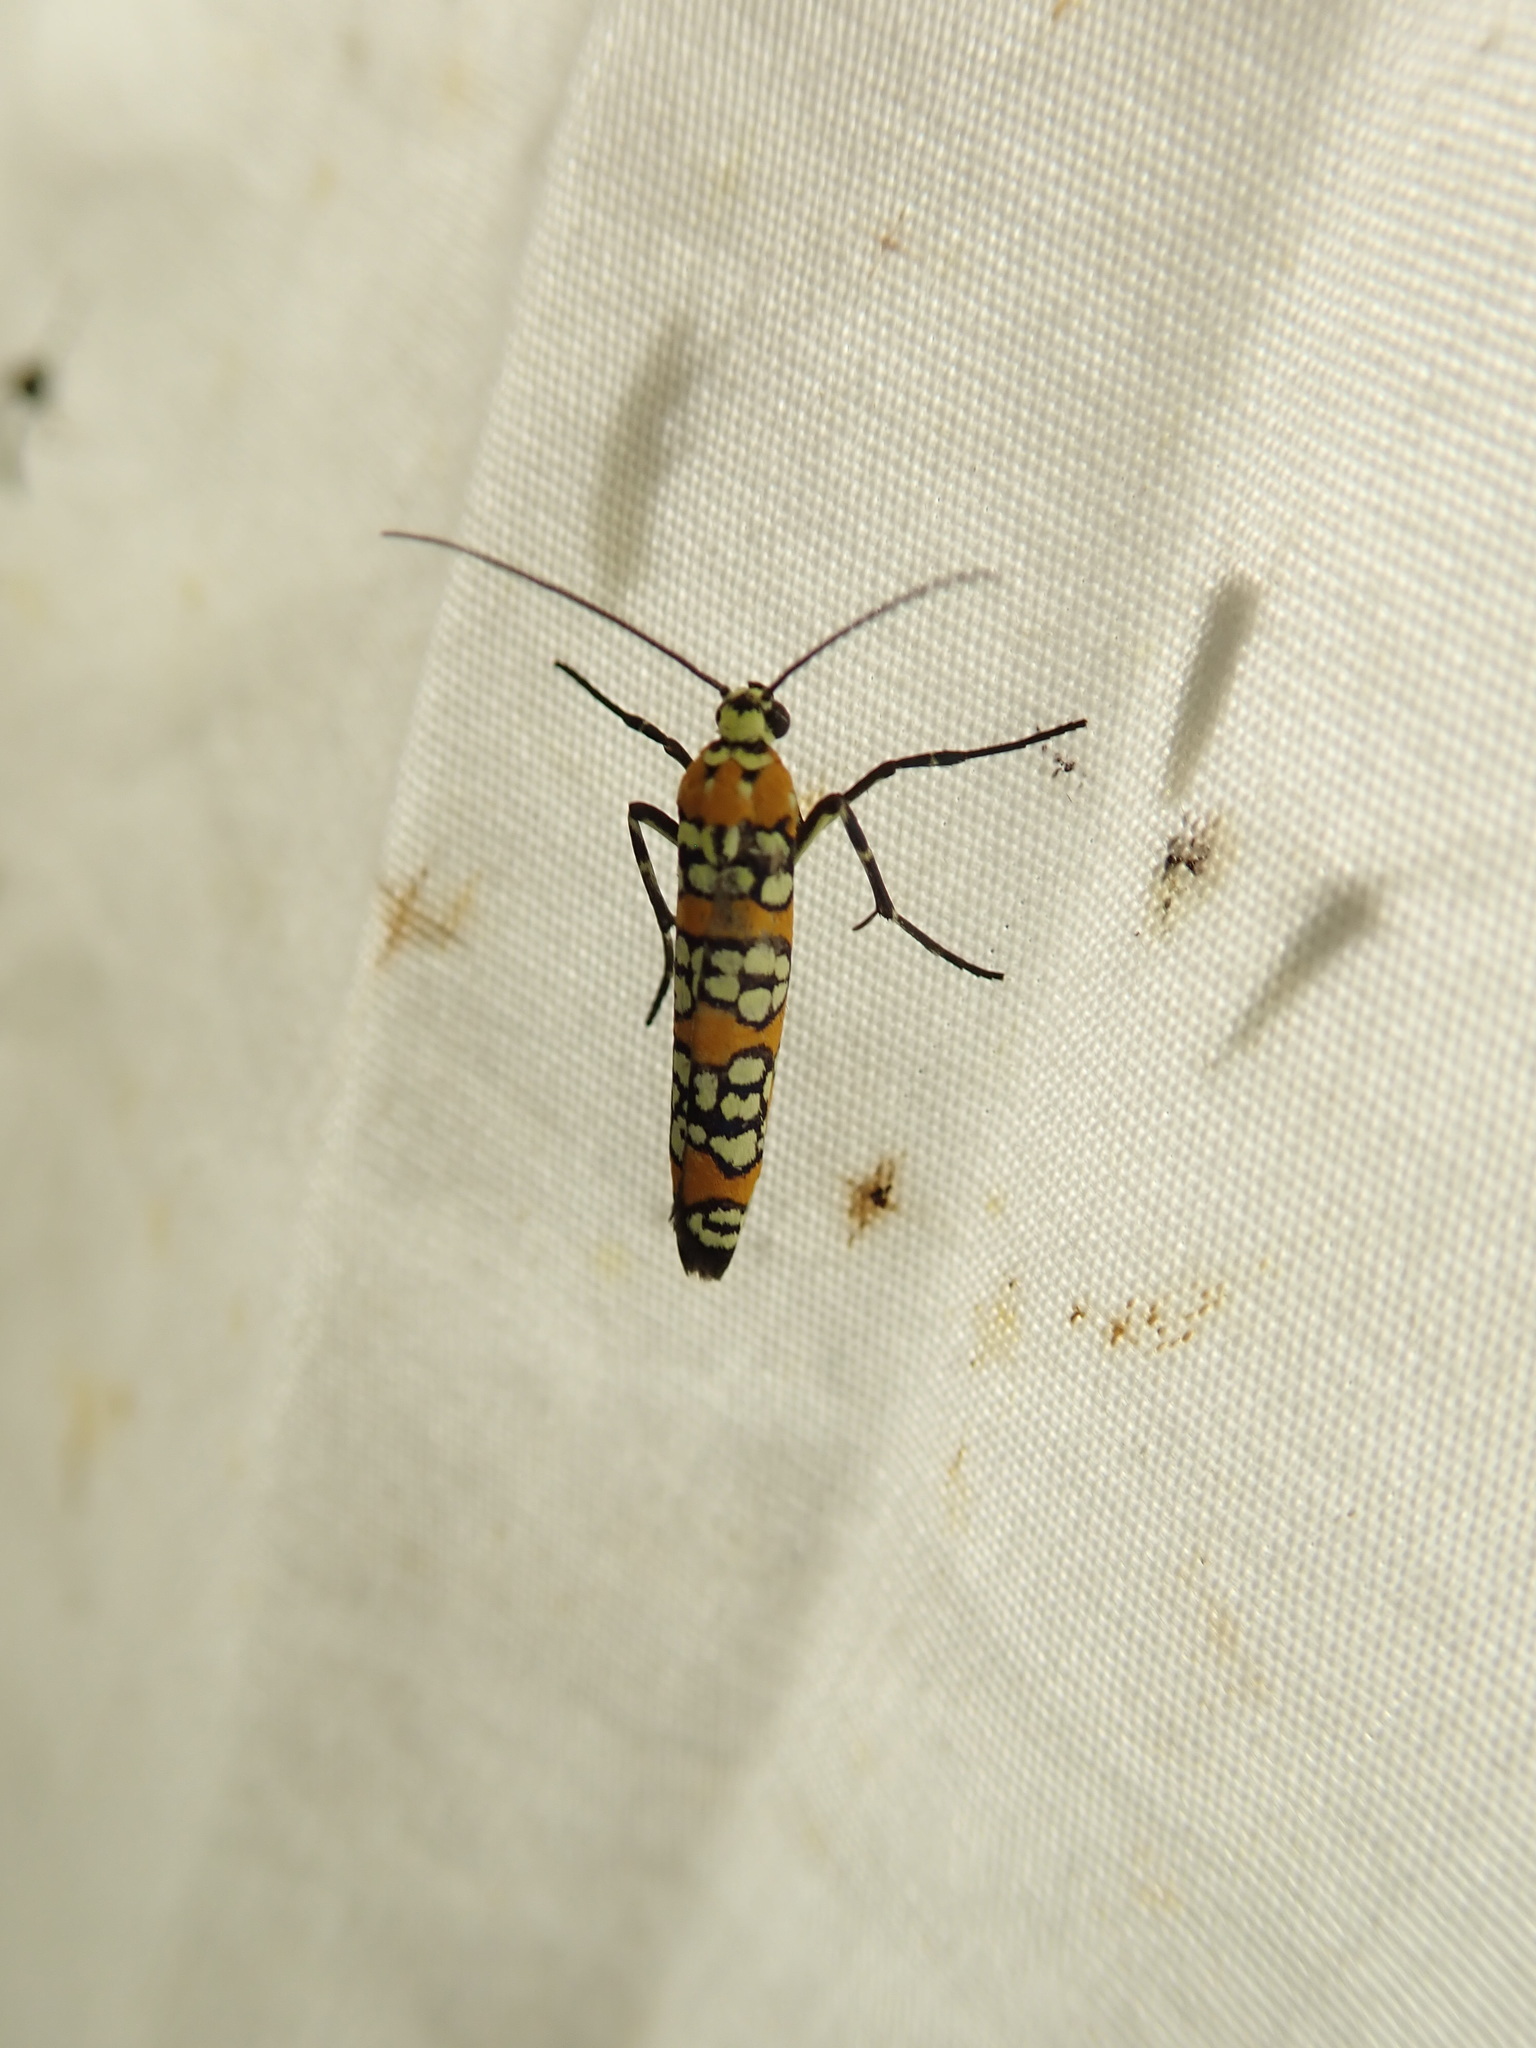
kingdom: Animalia
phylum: Arthropoda
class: Insecta
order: Lepidoptera
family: Attevidae
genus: Atteva
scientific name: Atteva punctella
